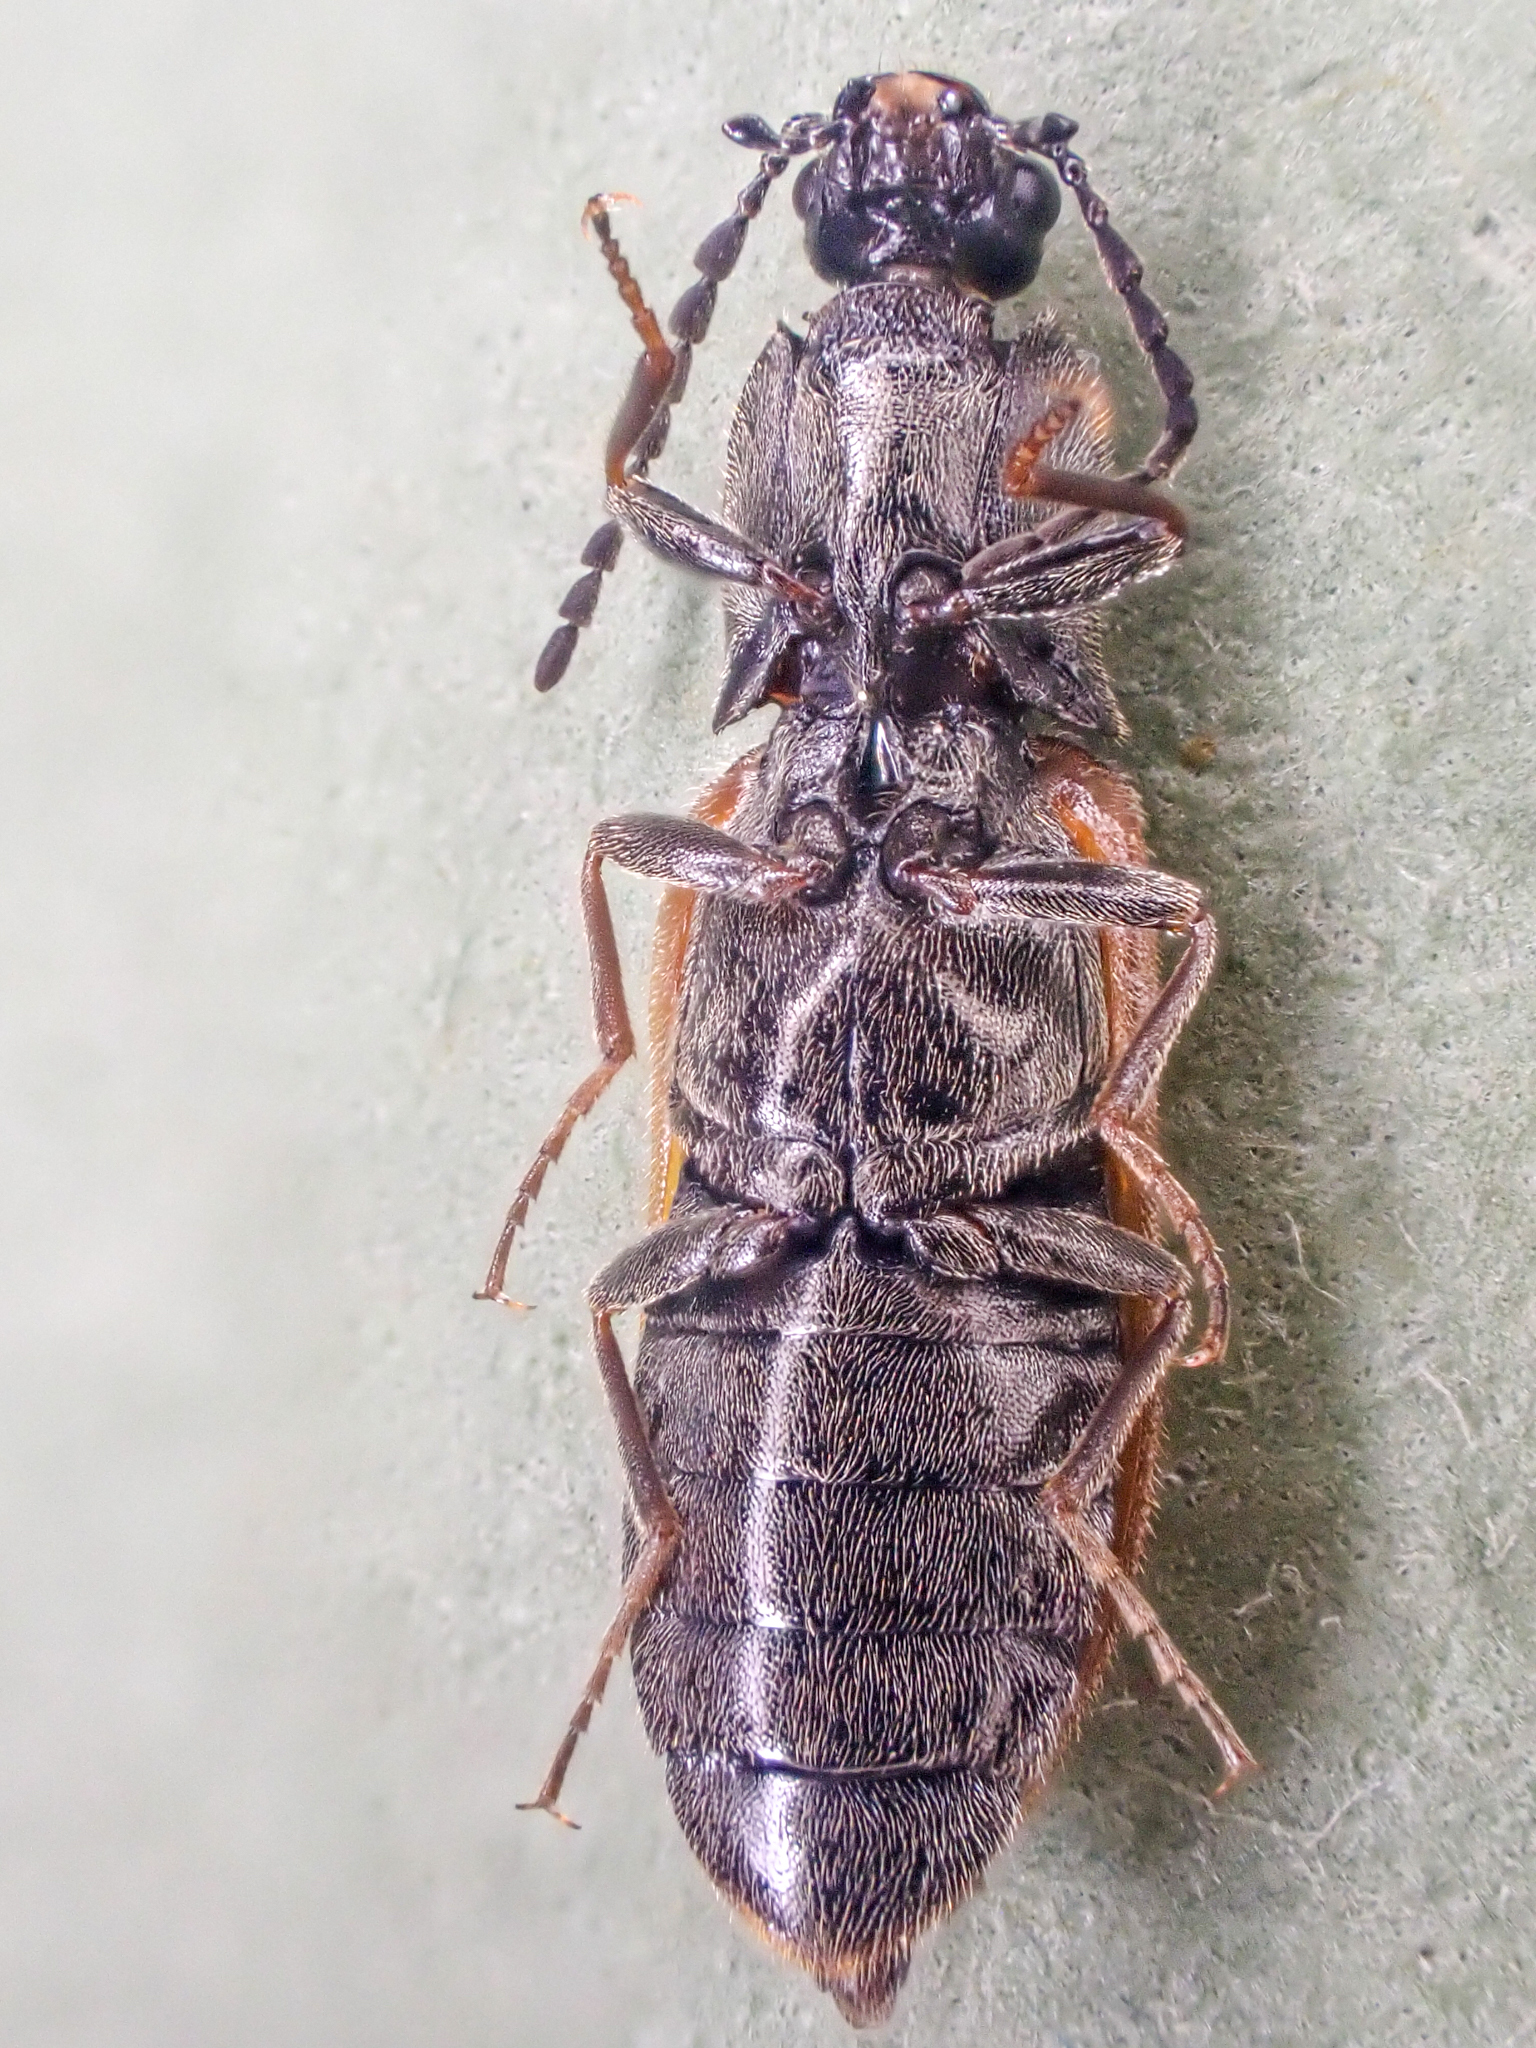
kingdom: Animalia
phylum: Arthropoda
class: Insecta
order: Coleoptera
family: Elateridae
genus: Pseudanostirus
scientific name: Pseudanostirus triundulatus
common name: Three-spotted click beetle
